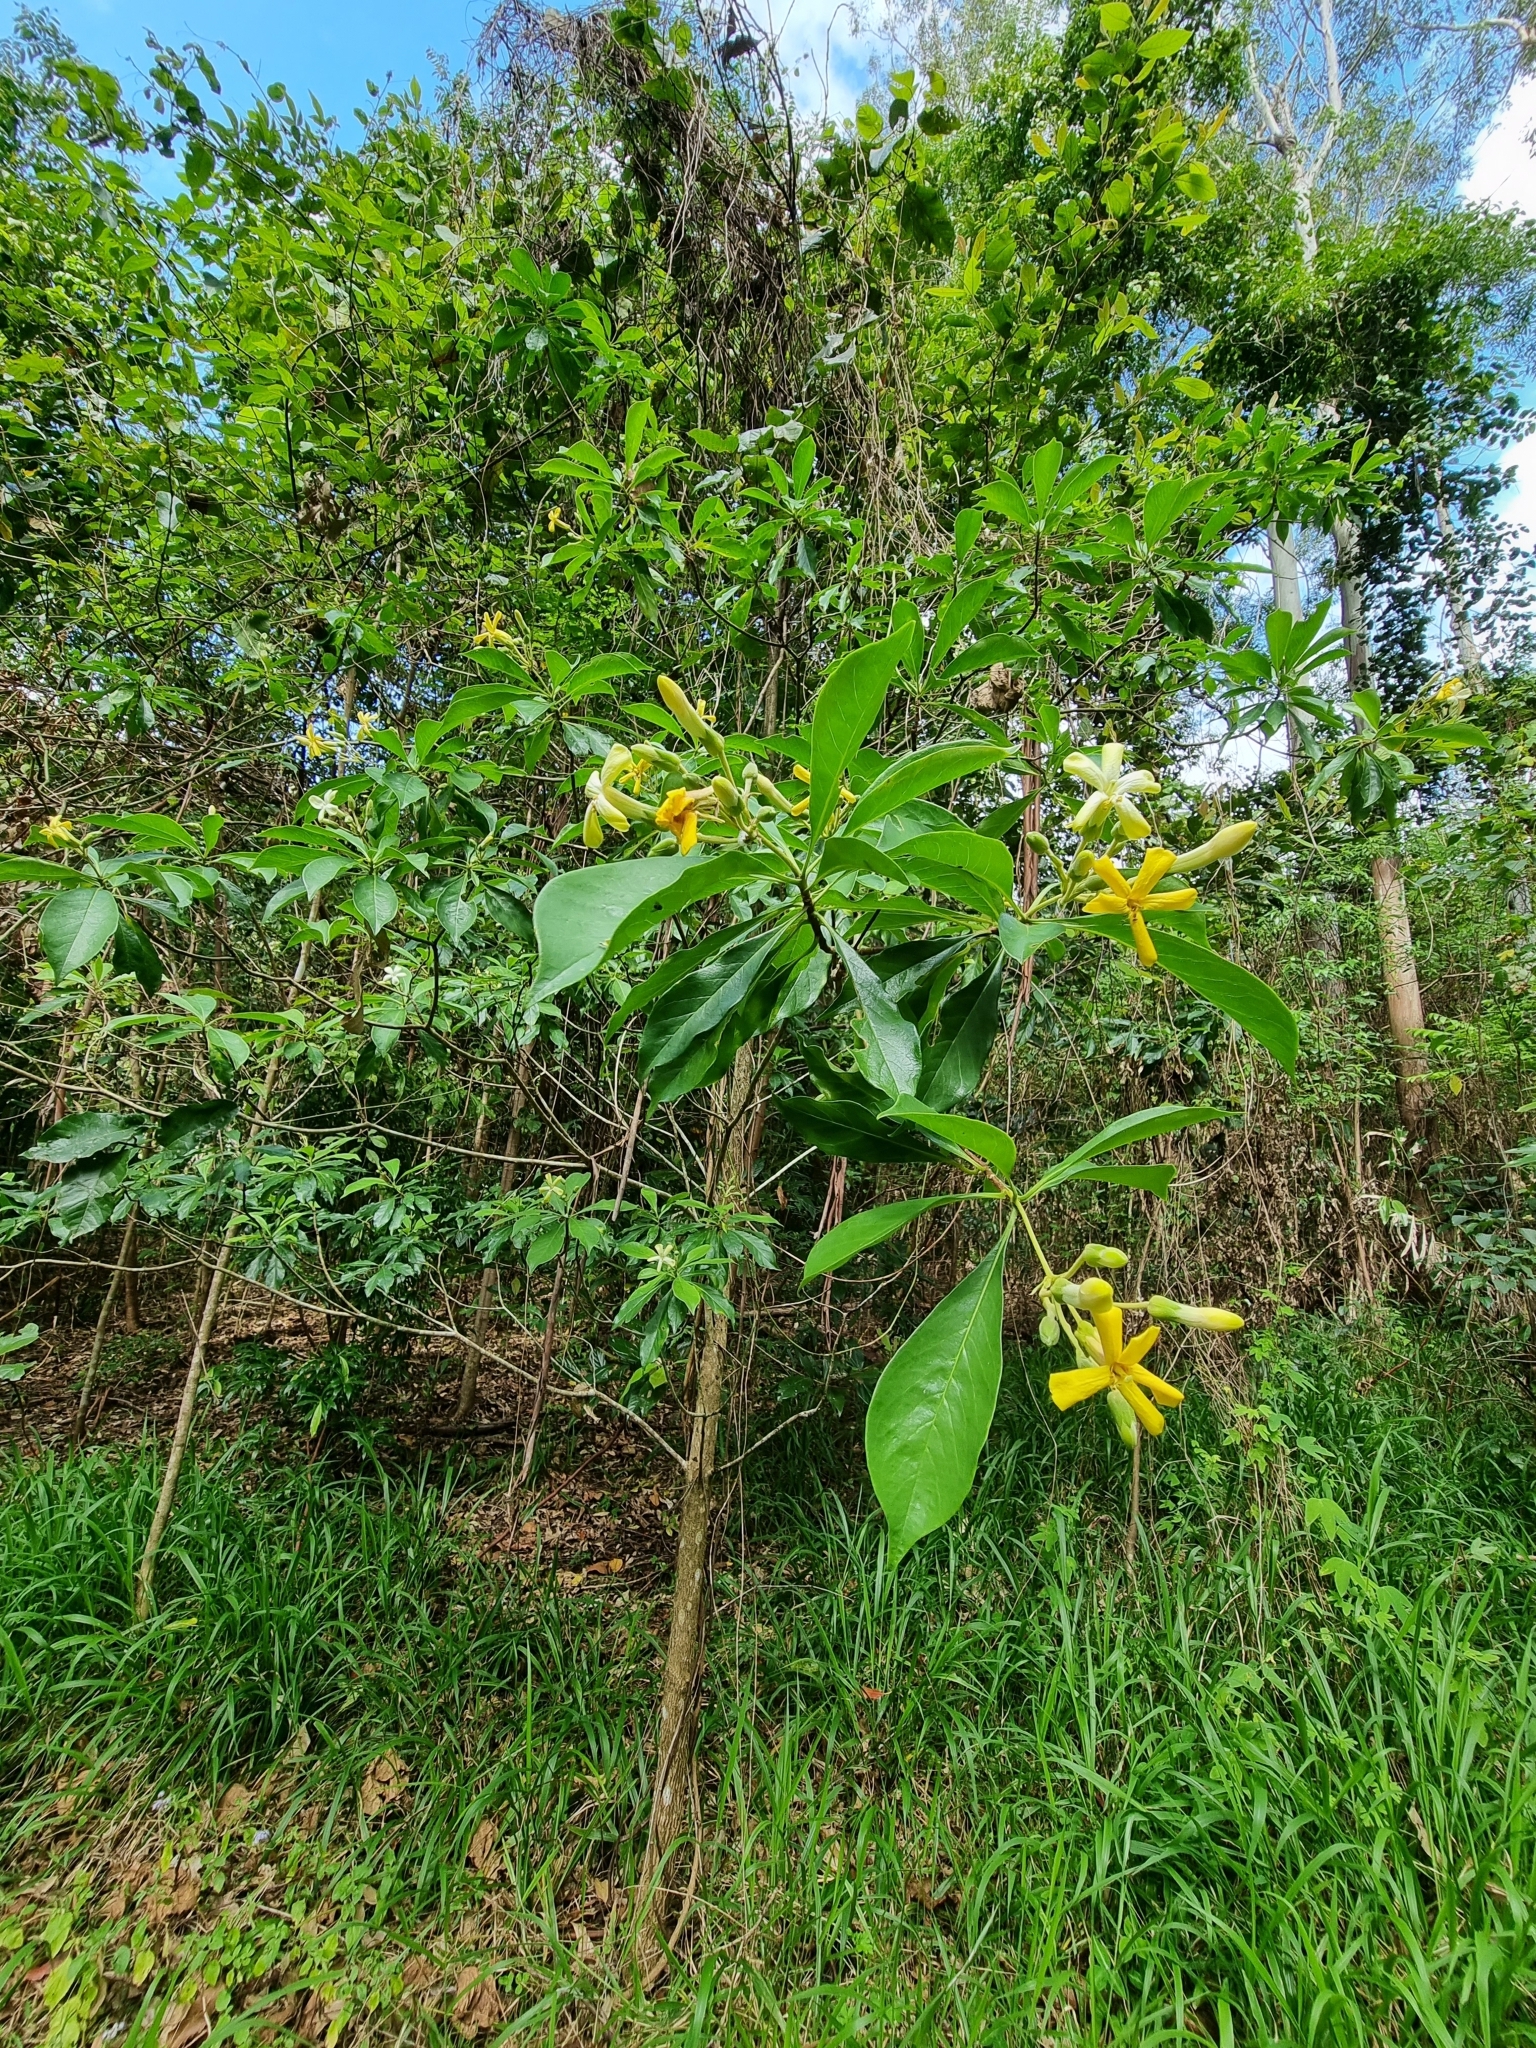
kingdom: Plantae
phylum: Tracheophyta
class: Magnoliopsida
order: Apiales
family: Pittosporaceae
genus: Hymenosporum
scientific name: Hymenosporum flavum
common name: Native frangipani
